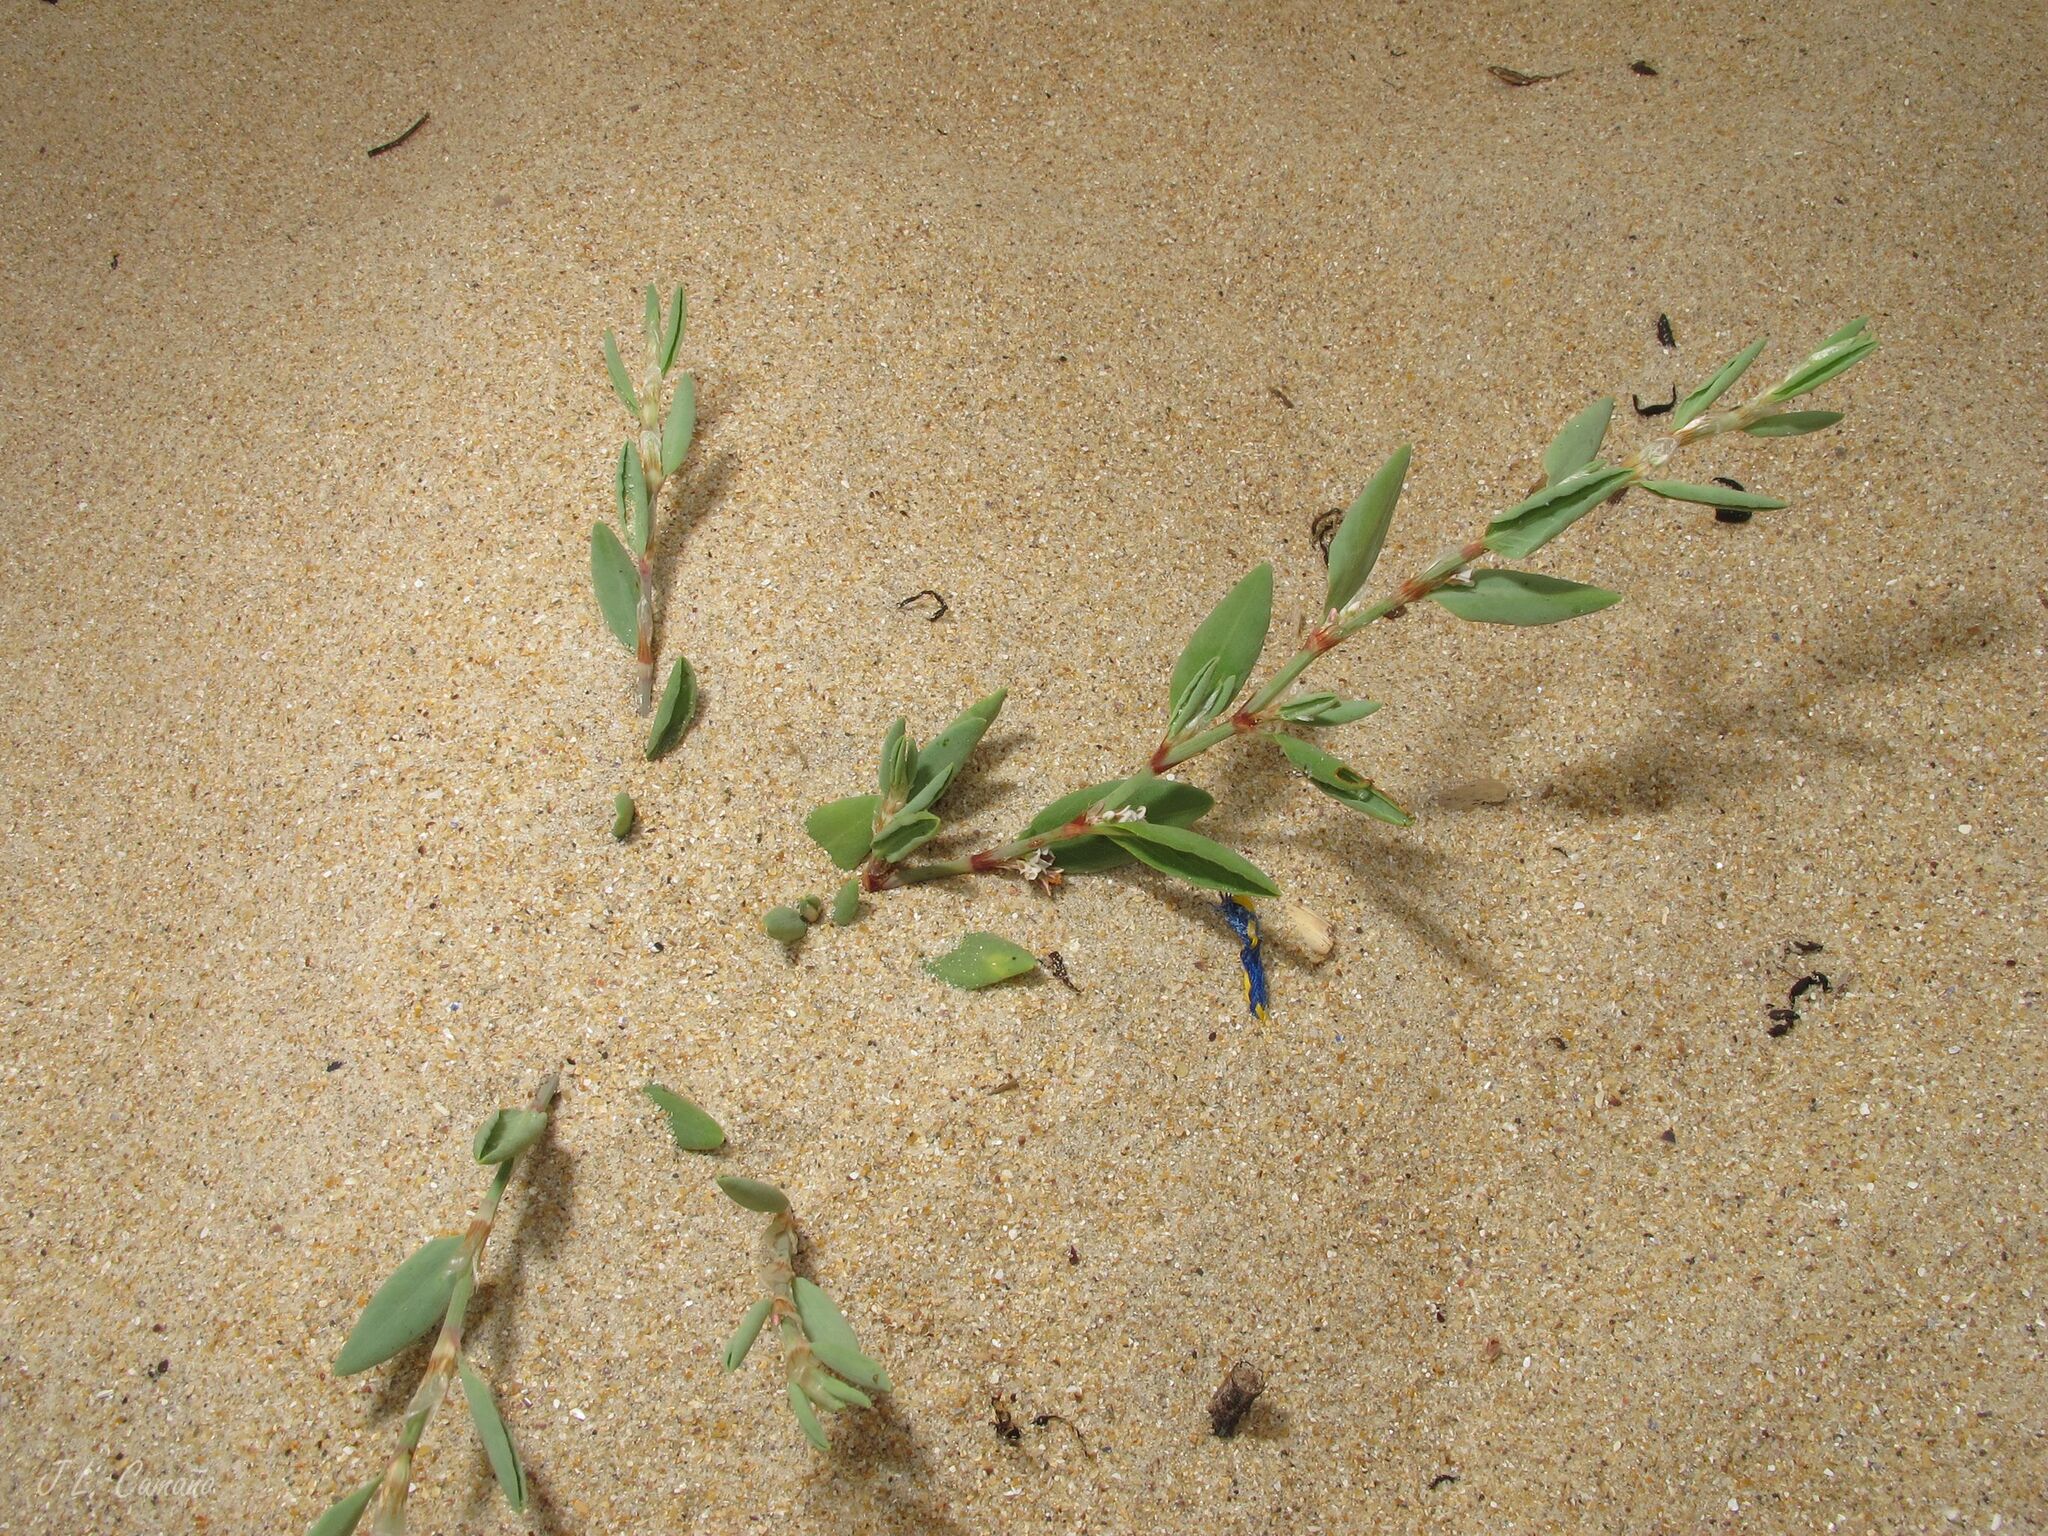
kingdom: Plantae
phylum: Tracheophyta
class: Magnoliopsida
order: Caryophyllales
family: Polygonaceae
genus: Polygonum
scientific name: Polygonum maritimum
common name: Sea knotgrass
